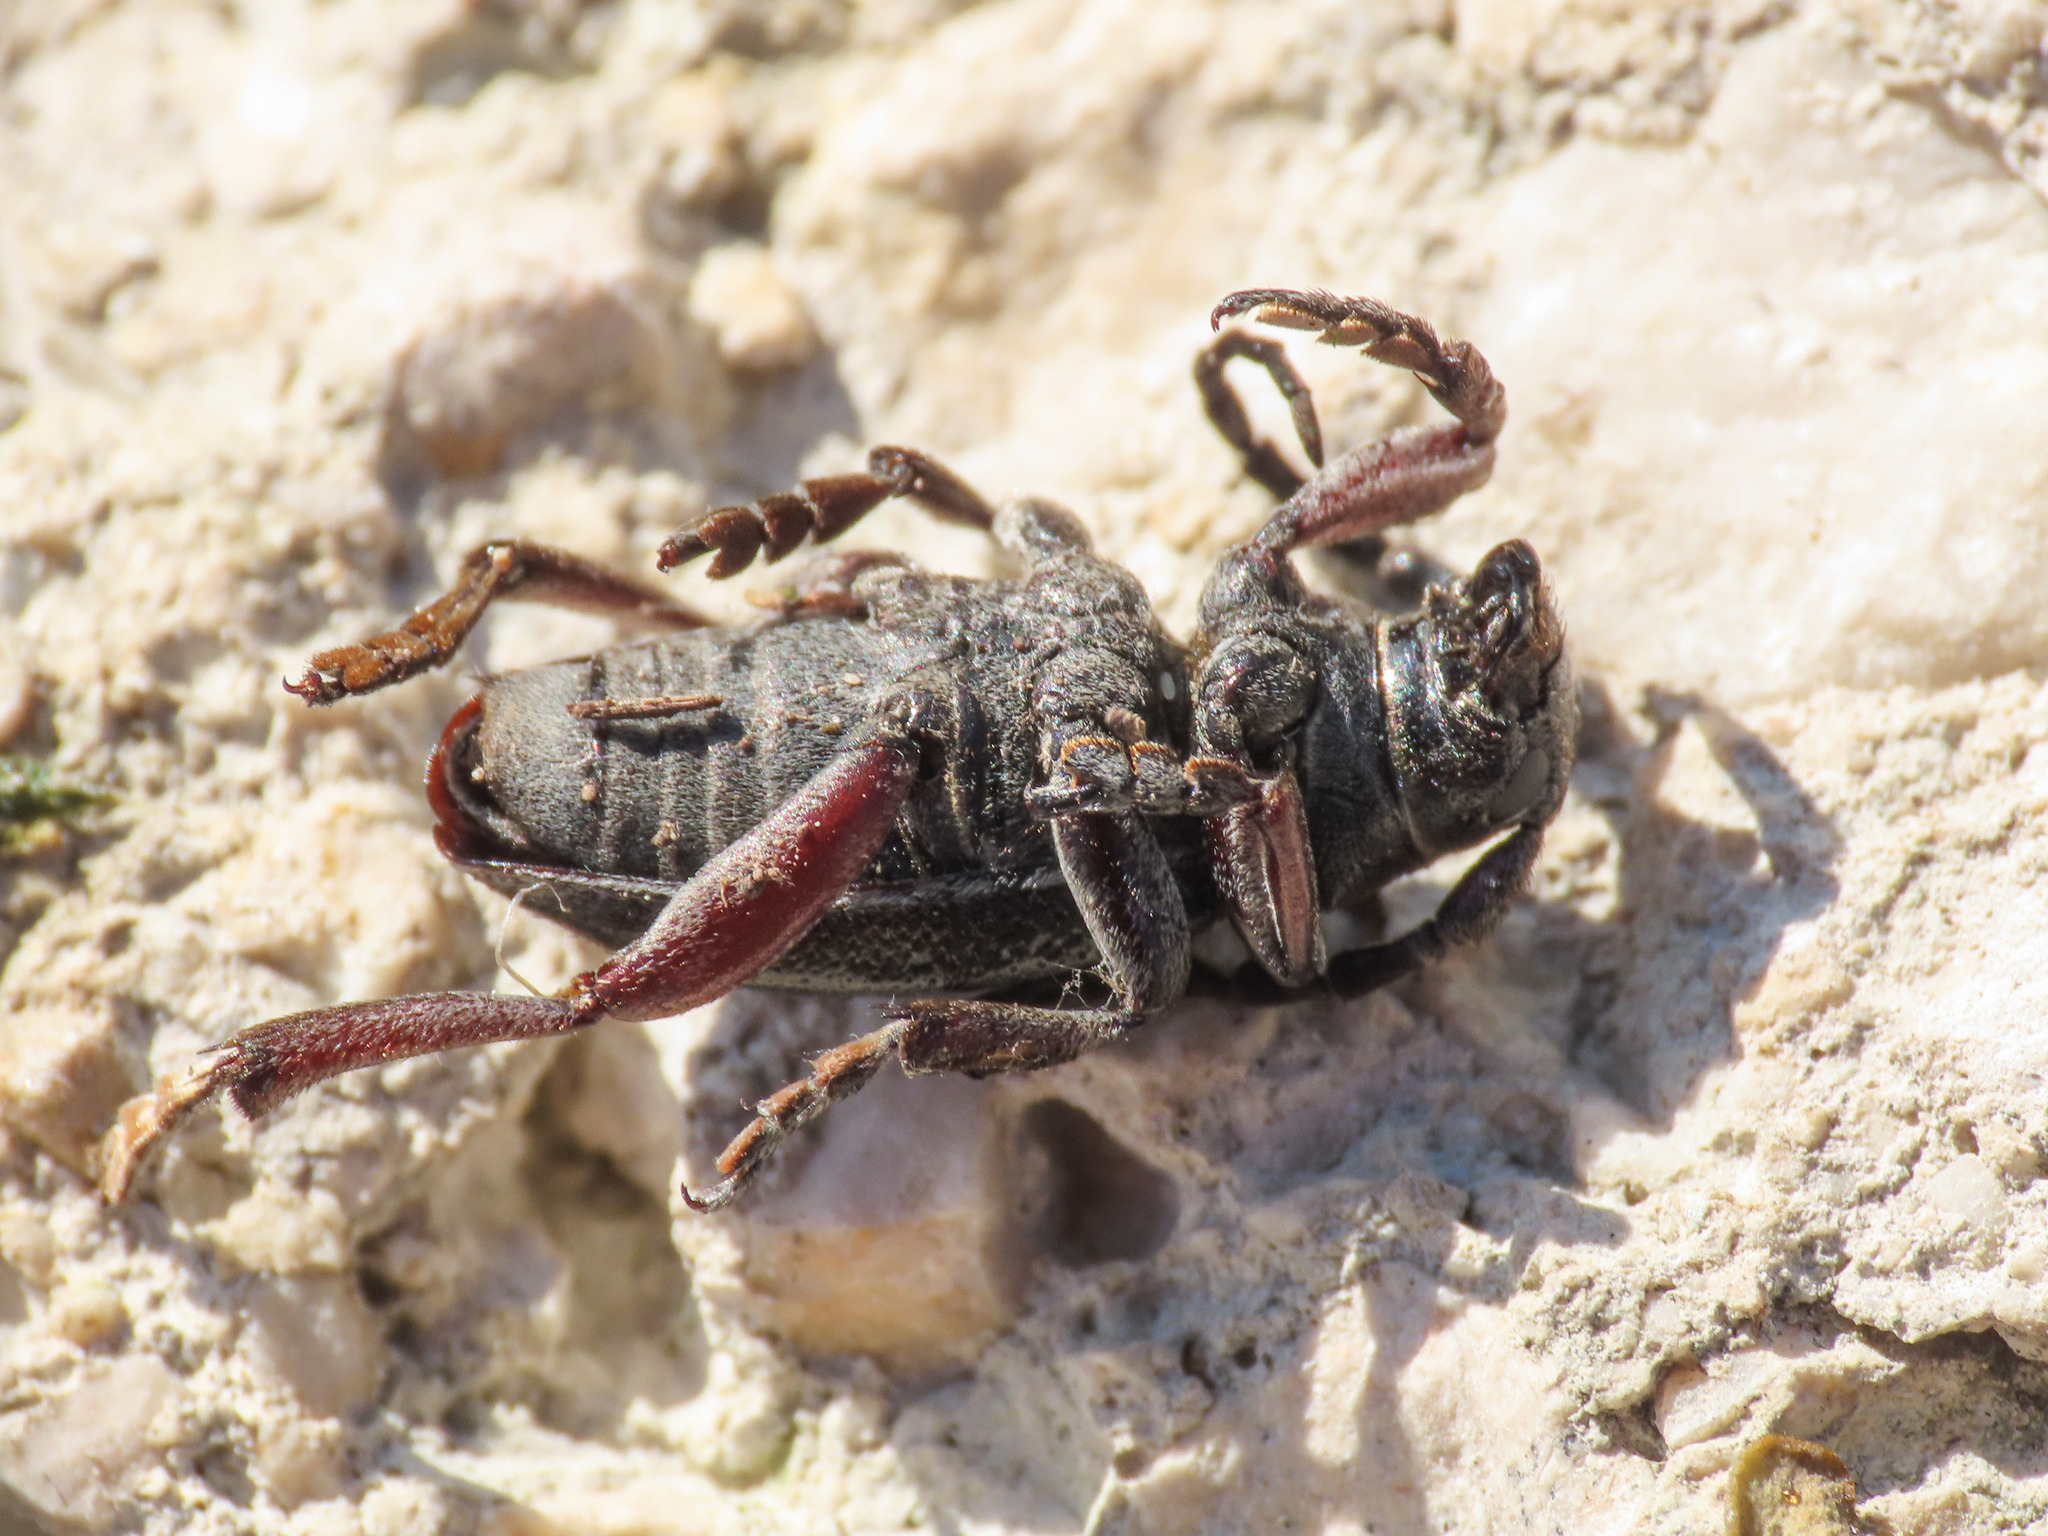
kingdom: Animalia
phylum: Arthropoda
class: Insecta
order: Coleoptera
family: Cerambycidae
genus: Dorcadion
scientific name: Dorcadion etruscum
